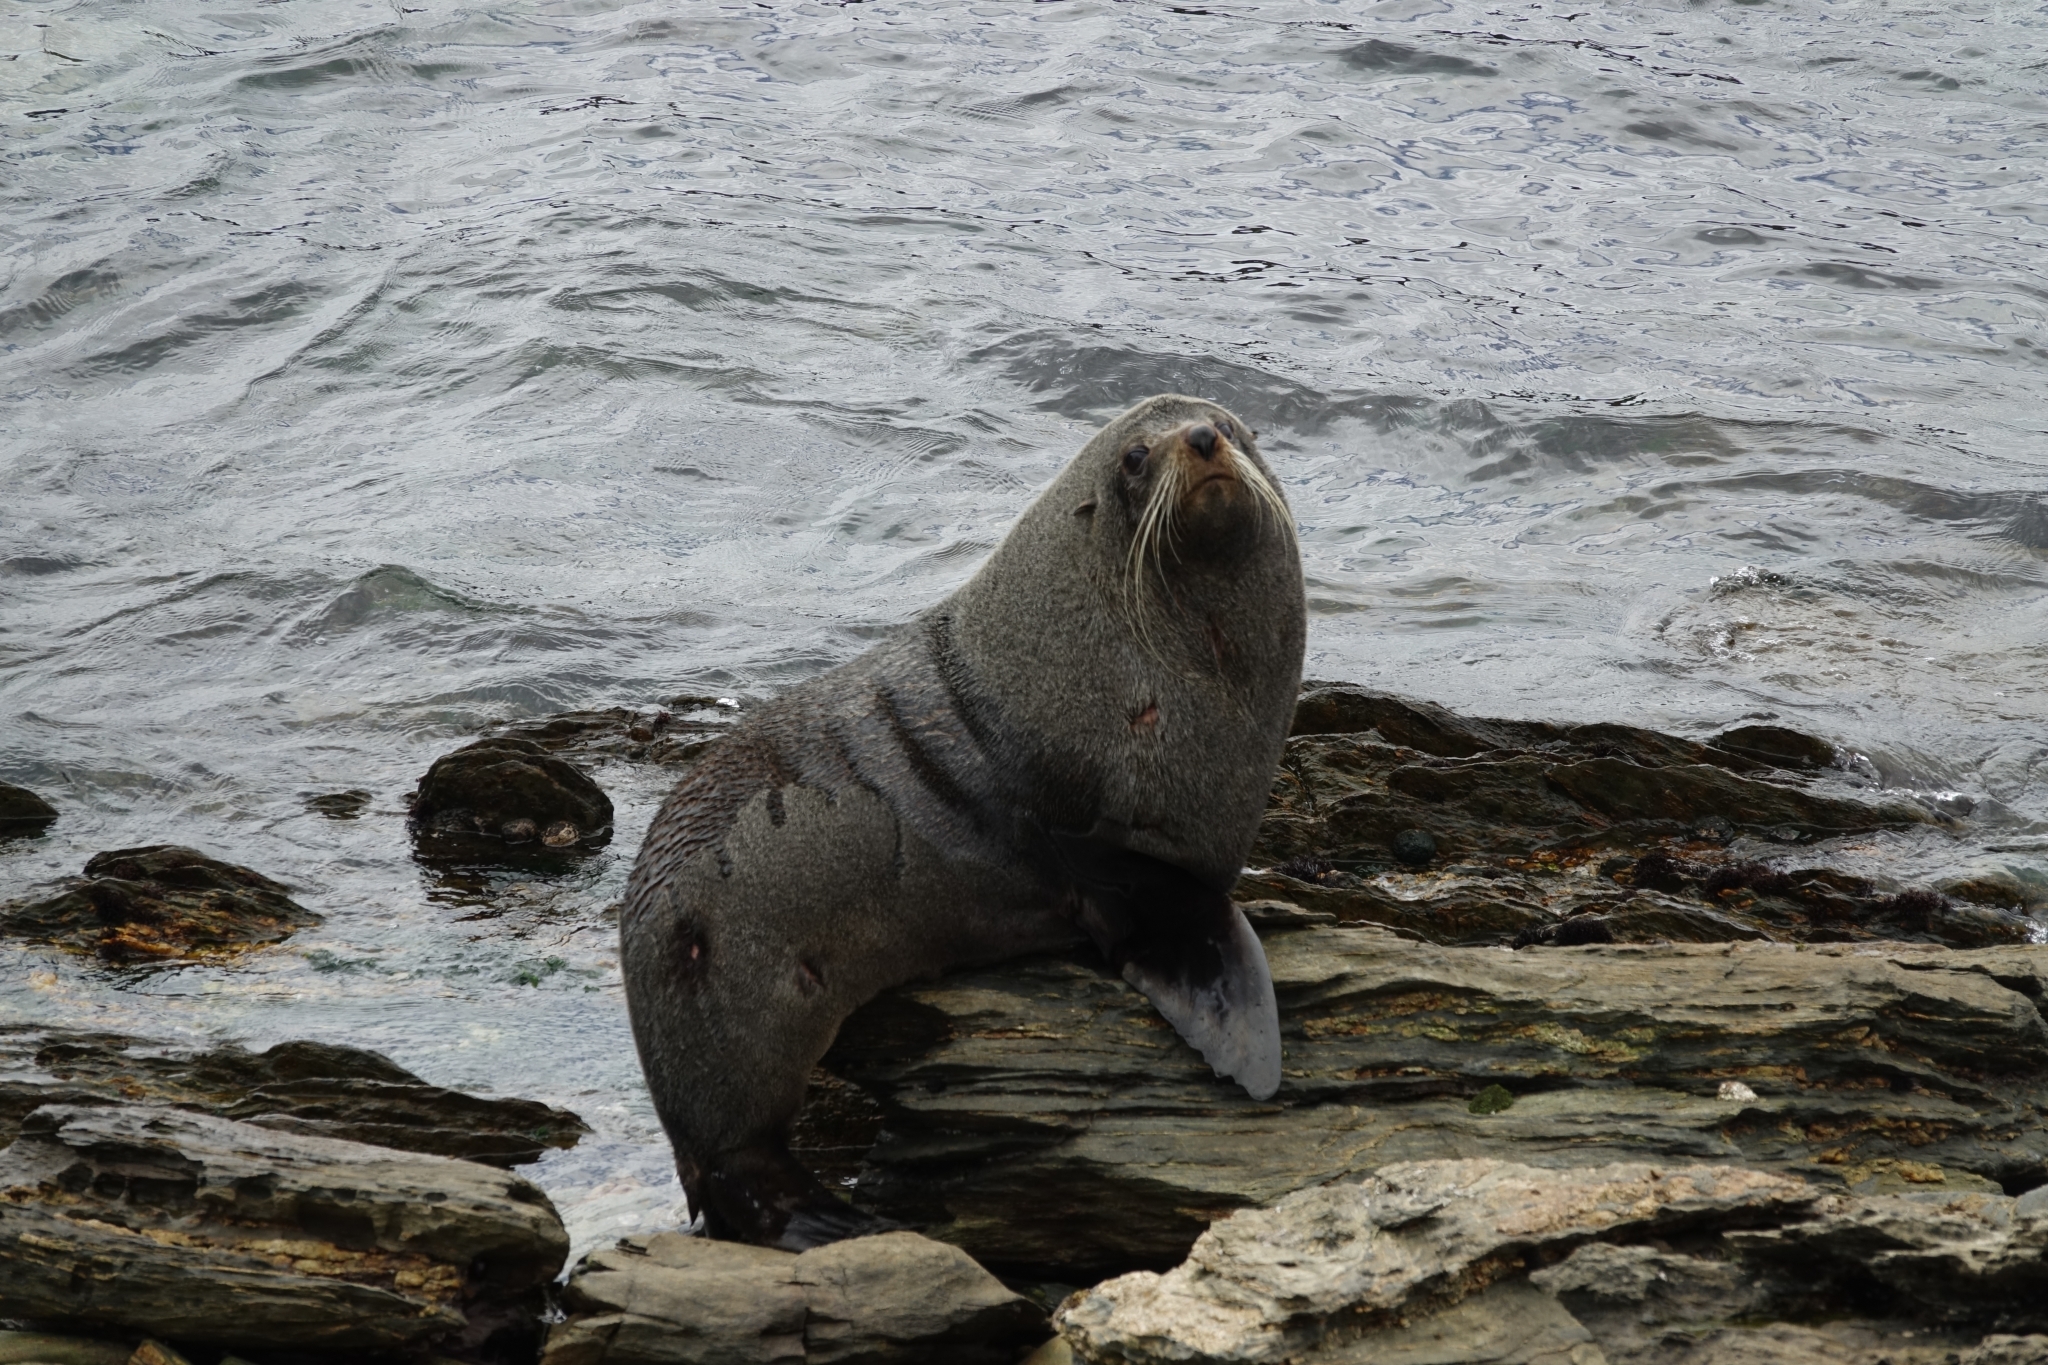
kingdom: Animalia
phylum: Chordata
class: Mammalia
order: Carnivora
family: Otariidae
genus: Arctocephalus
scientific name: Arctocephalus forsteri
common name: New zealand fur seal
